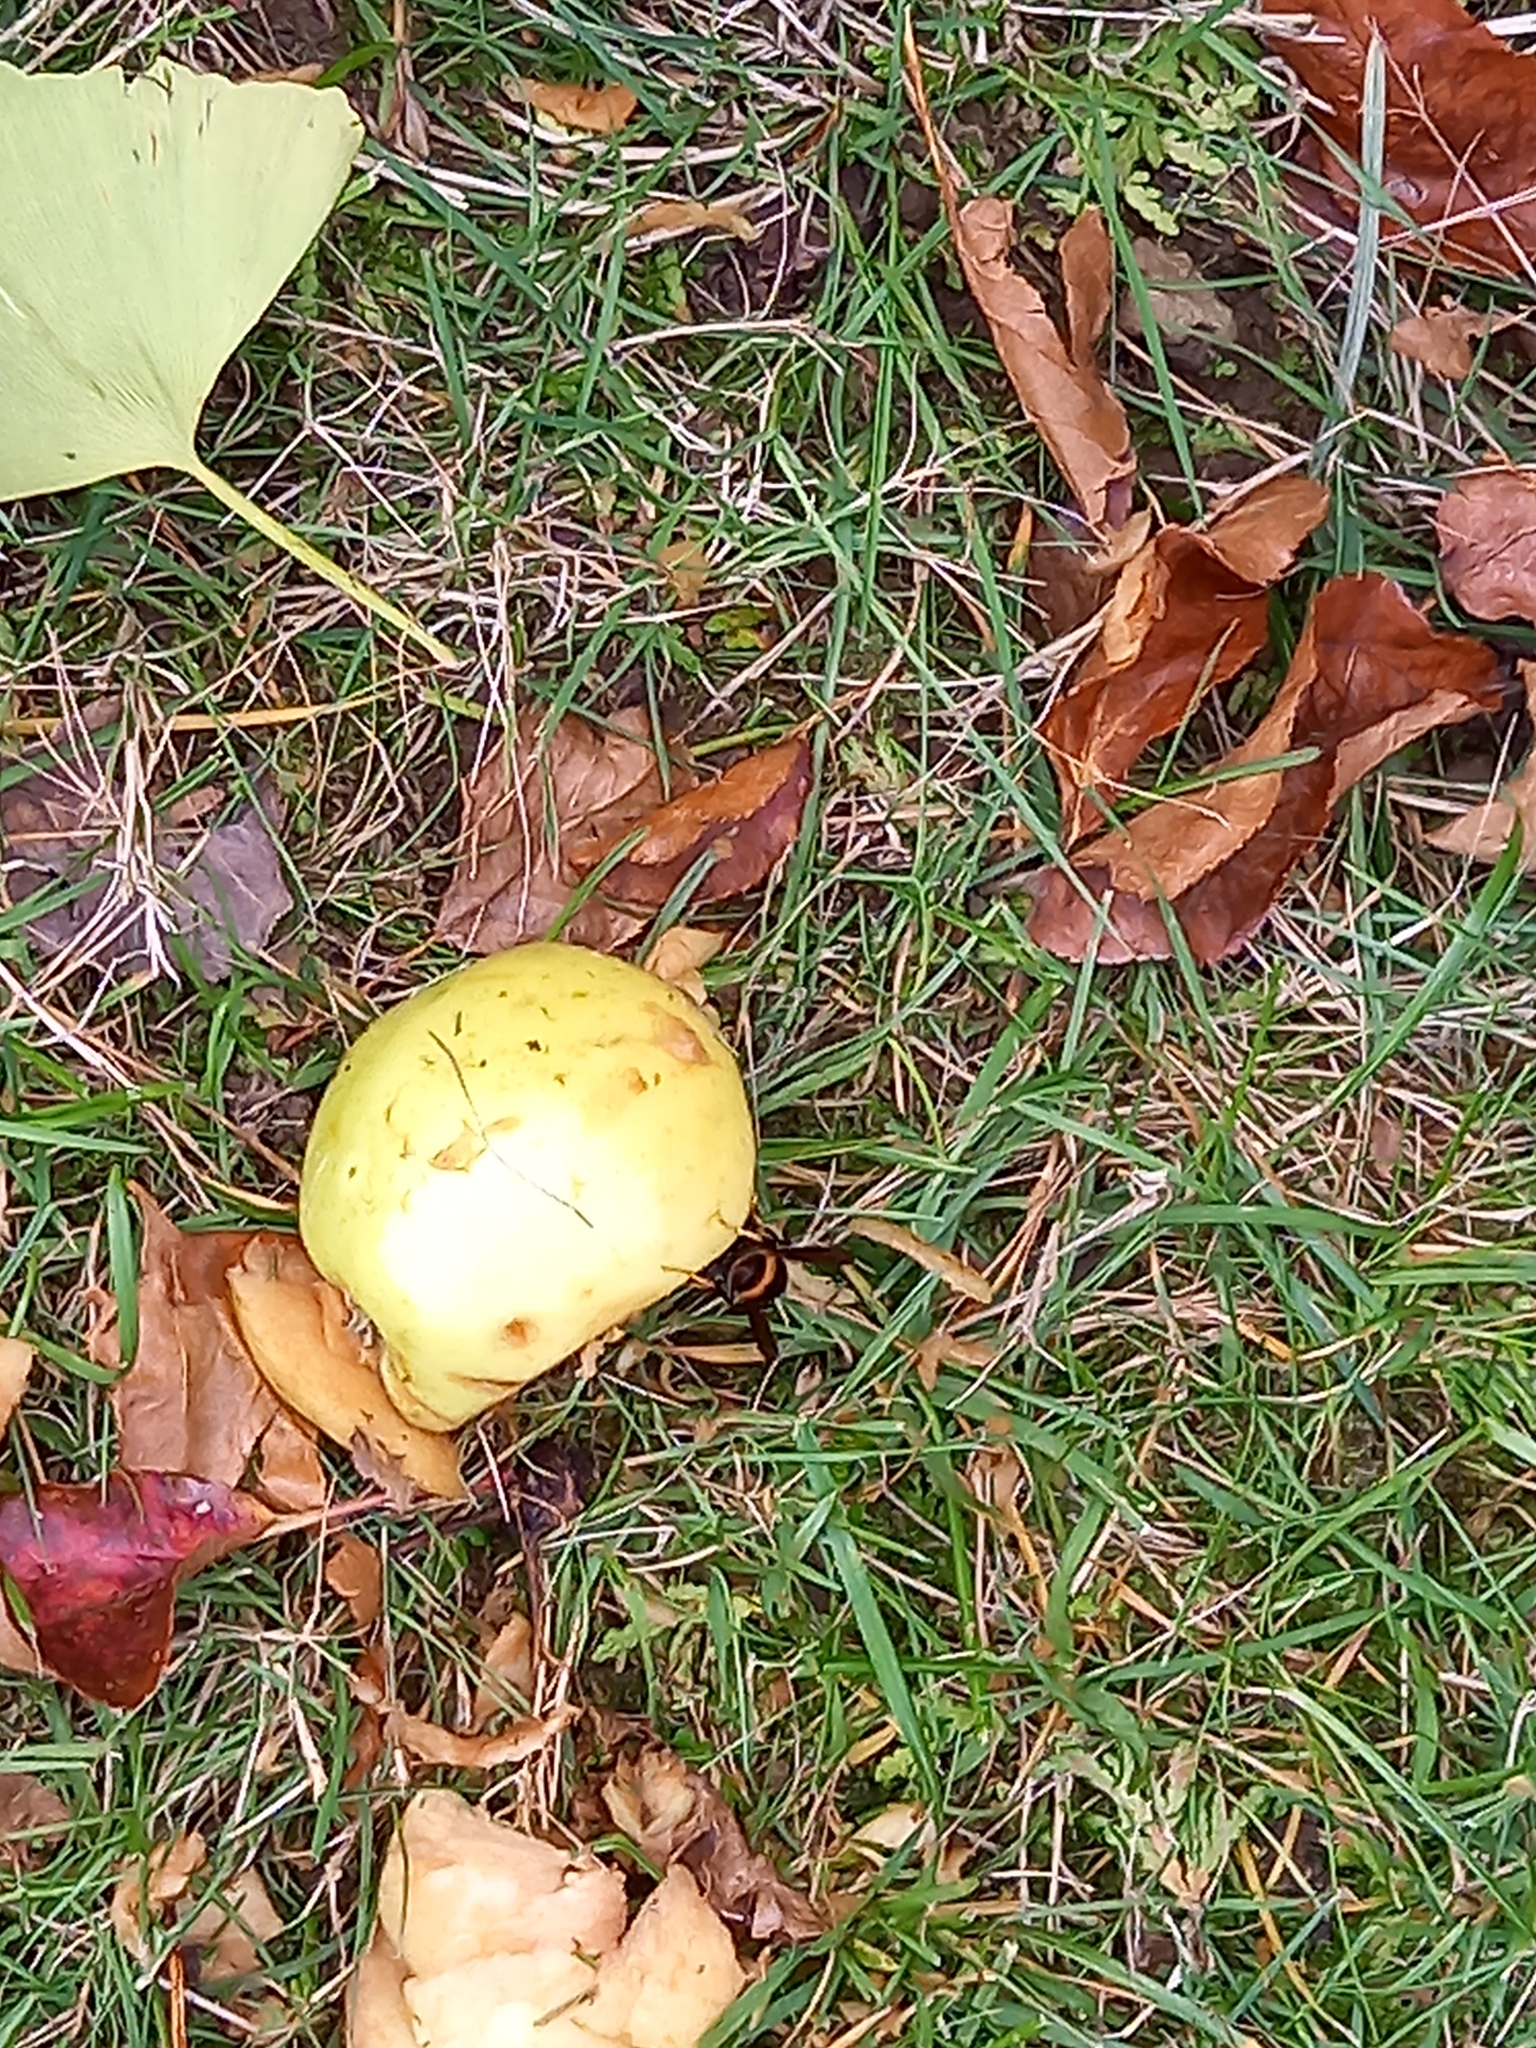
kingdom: Animalia
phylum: Arthropoda
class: Insecta
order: Hymenoptera
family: Vespidae
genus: Vespa
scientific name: Vespa velutina
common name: Asian hornet
